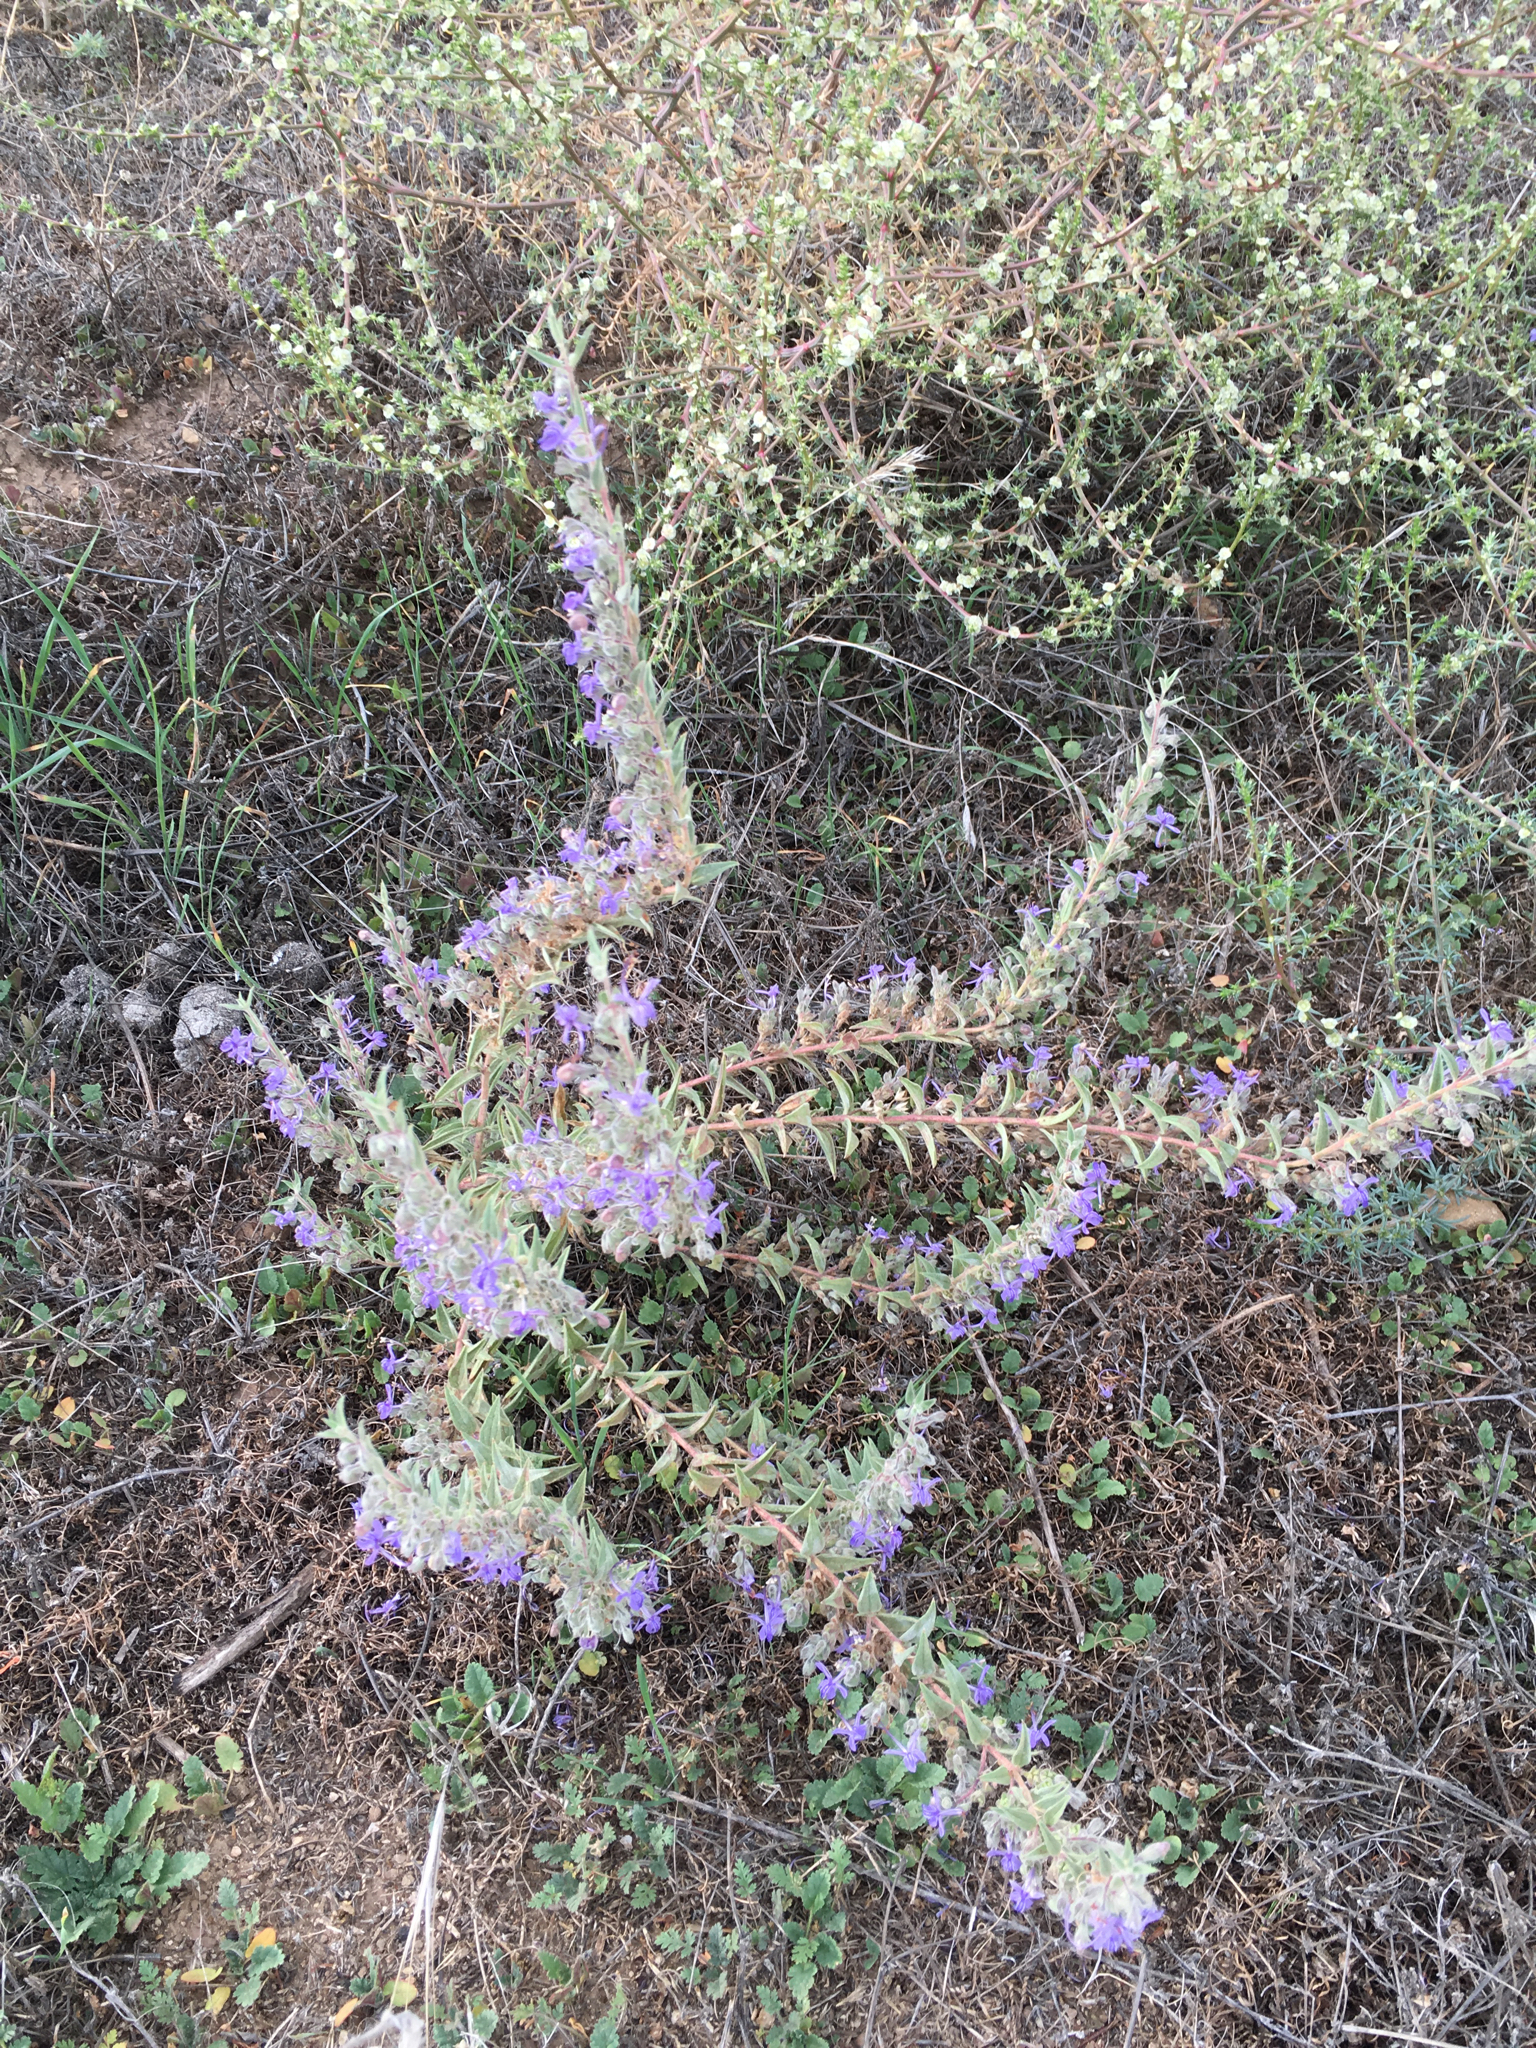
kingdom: Plantae
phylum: Tracheophyta
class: Magnoliopsida
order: Lamiales
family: Lamiaceae
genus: Trichostema
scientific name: Trichostema lanceolatum
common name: Vinegar-weed
